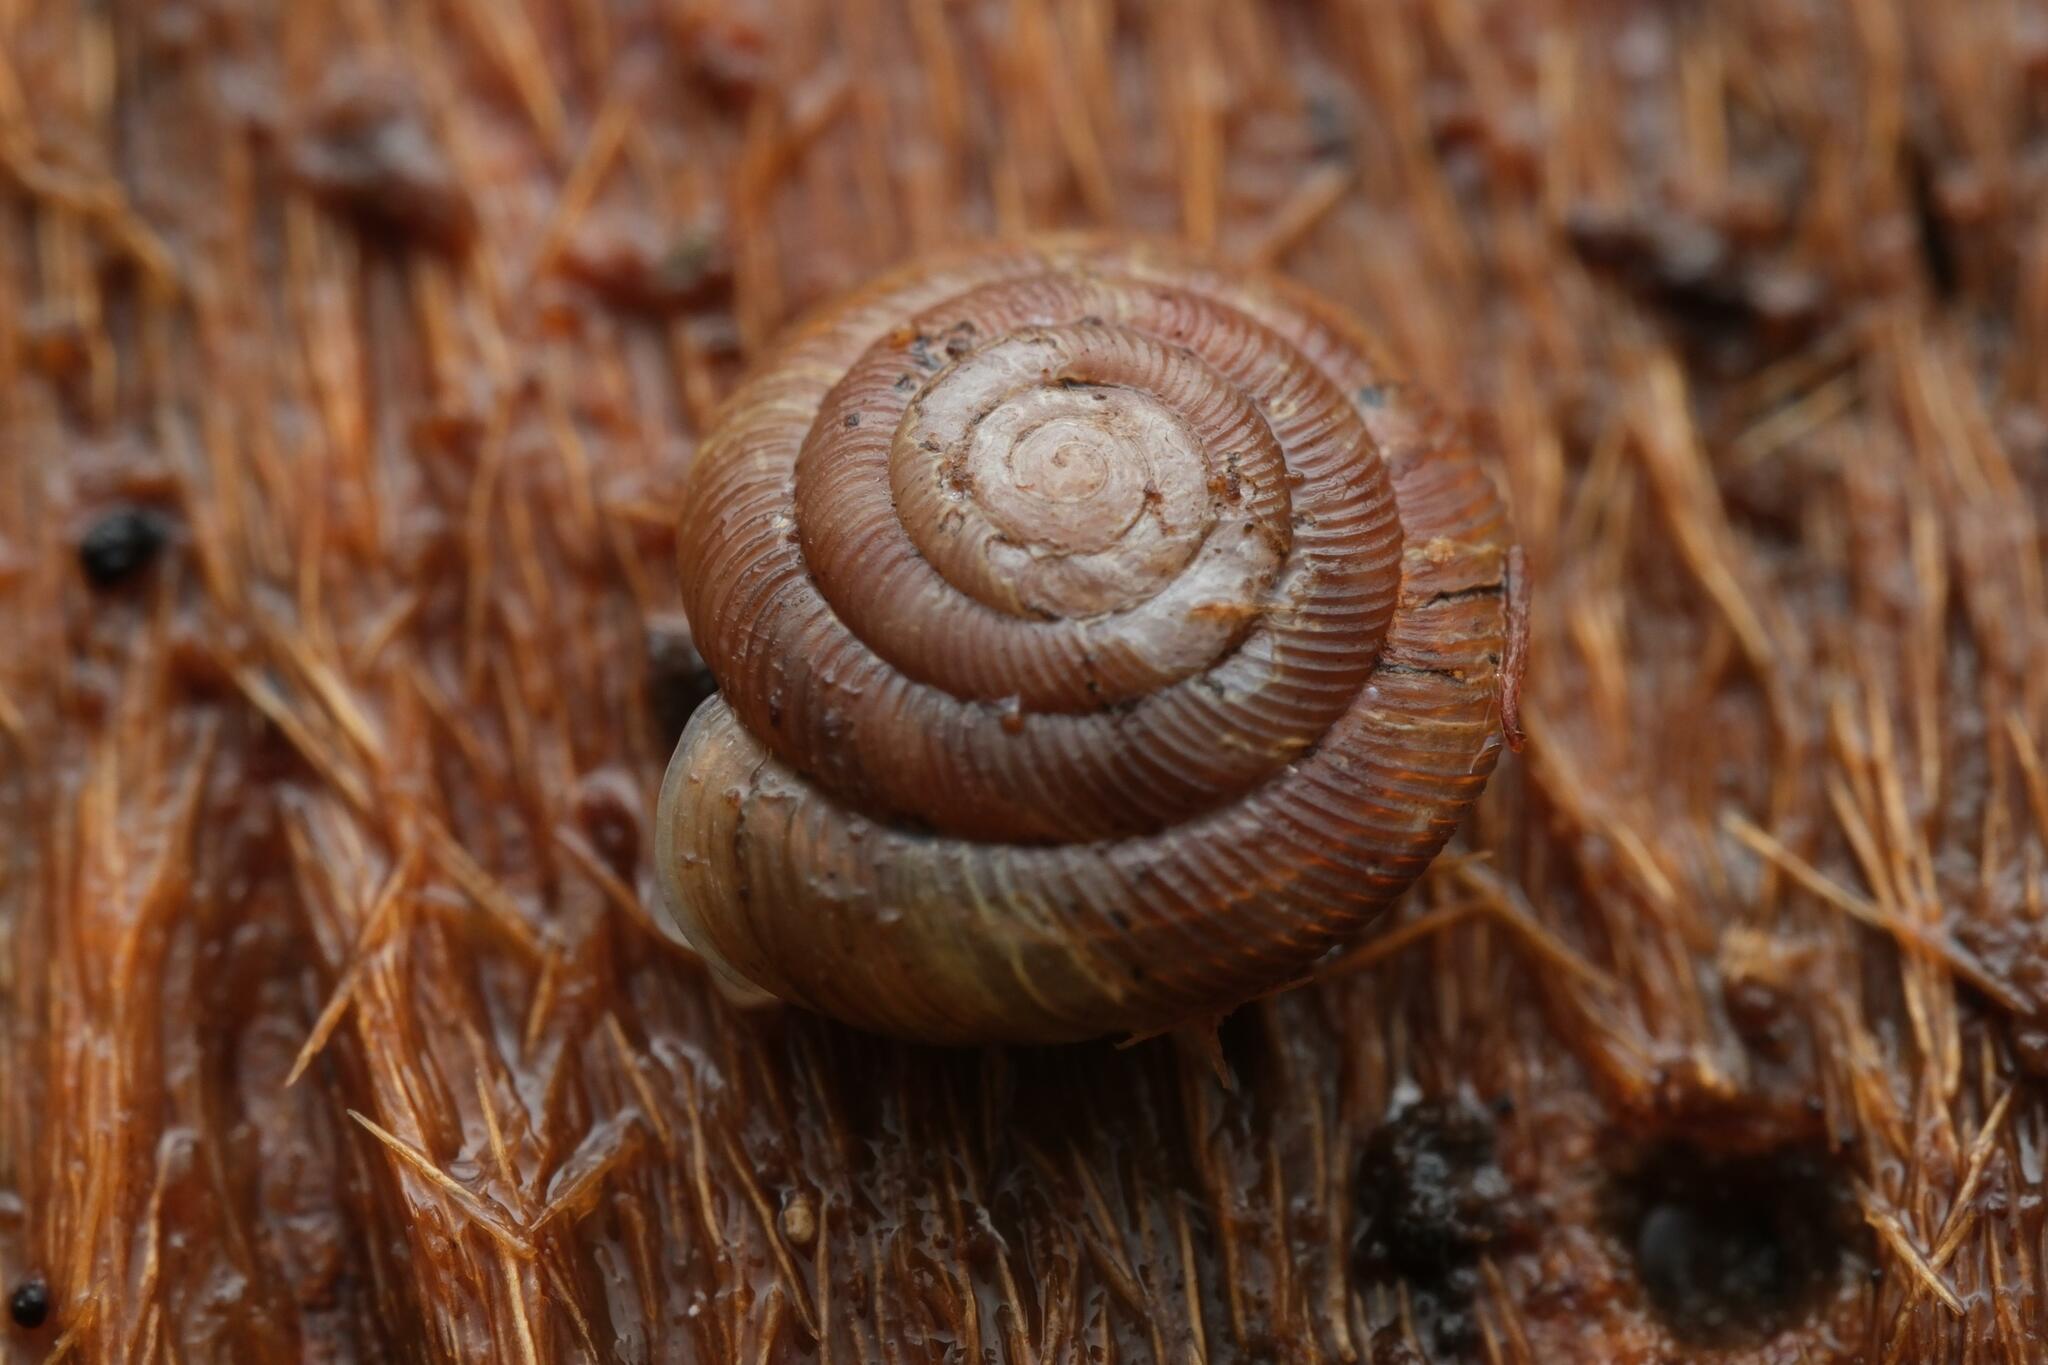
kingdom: Animalia
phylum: Mollusca
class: Gastropoda
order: Stylommatophora
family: Discidae
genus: Discus
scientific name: Discus rotundatus
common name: Rounded snail
